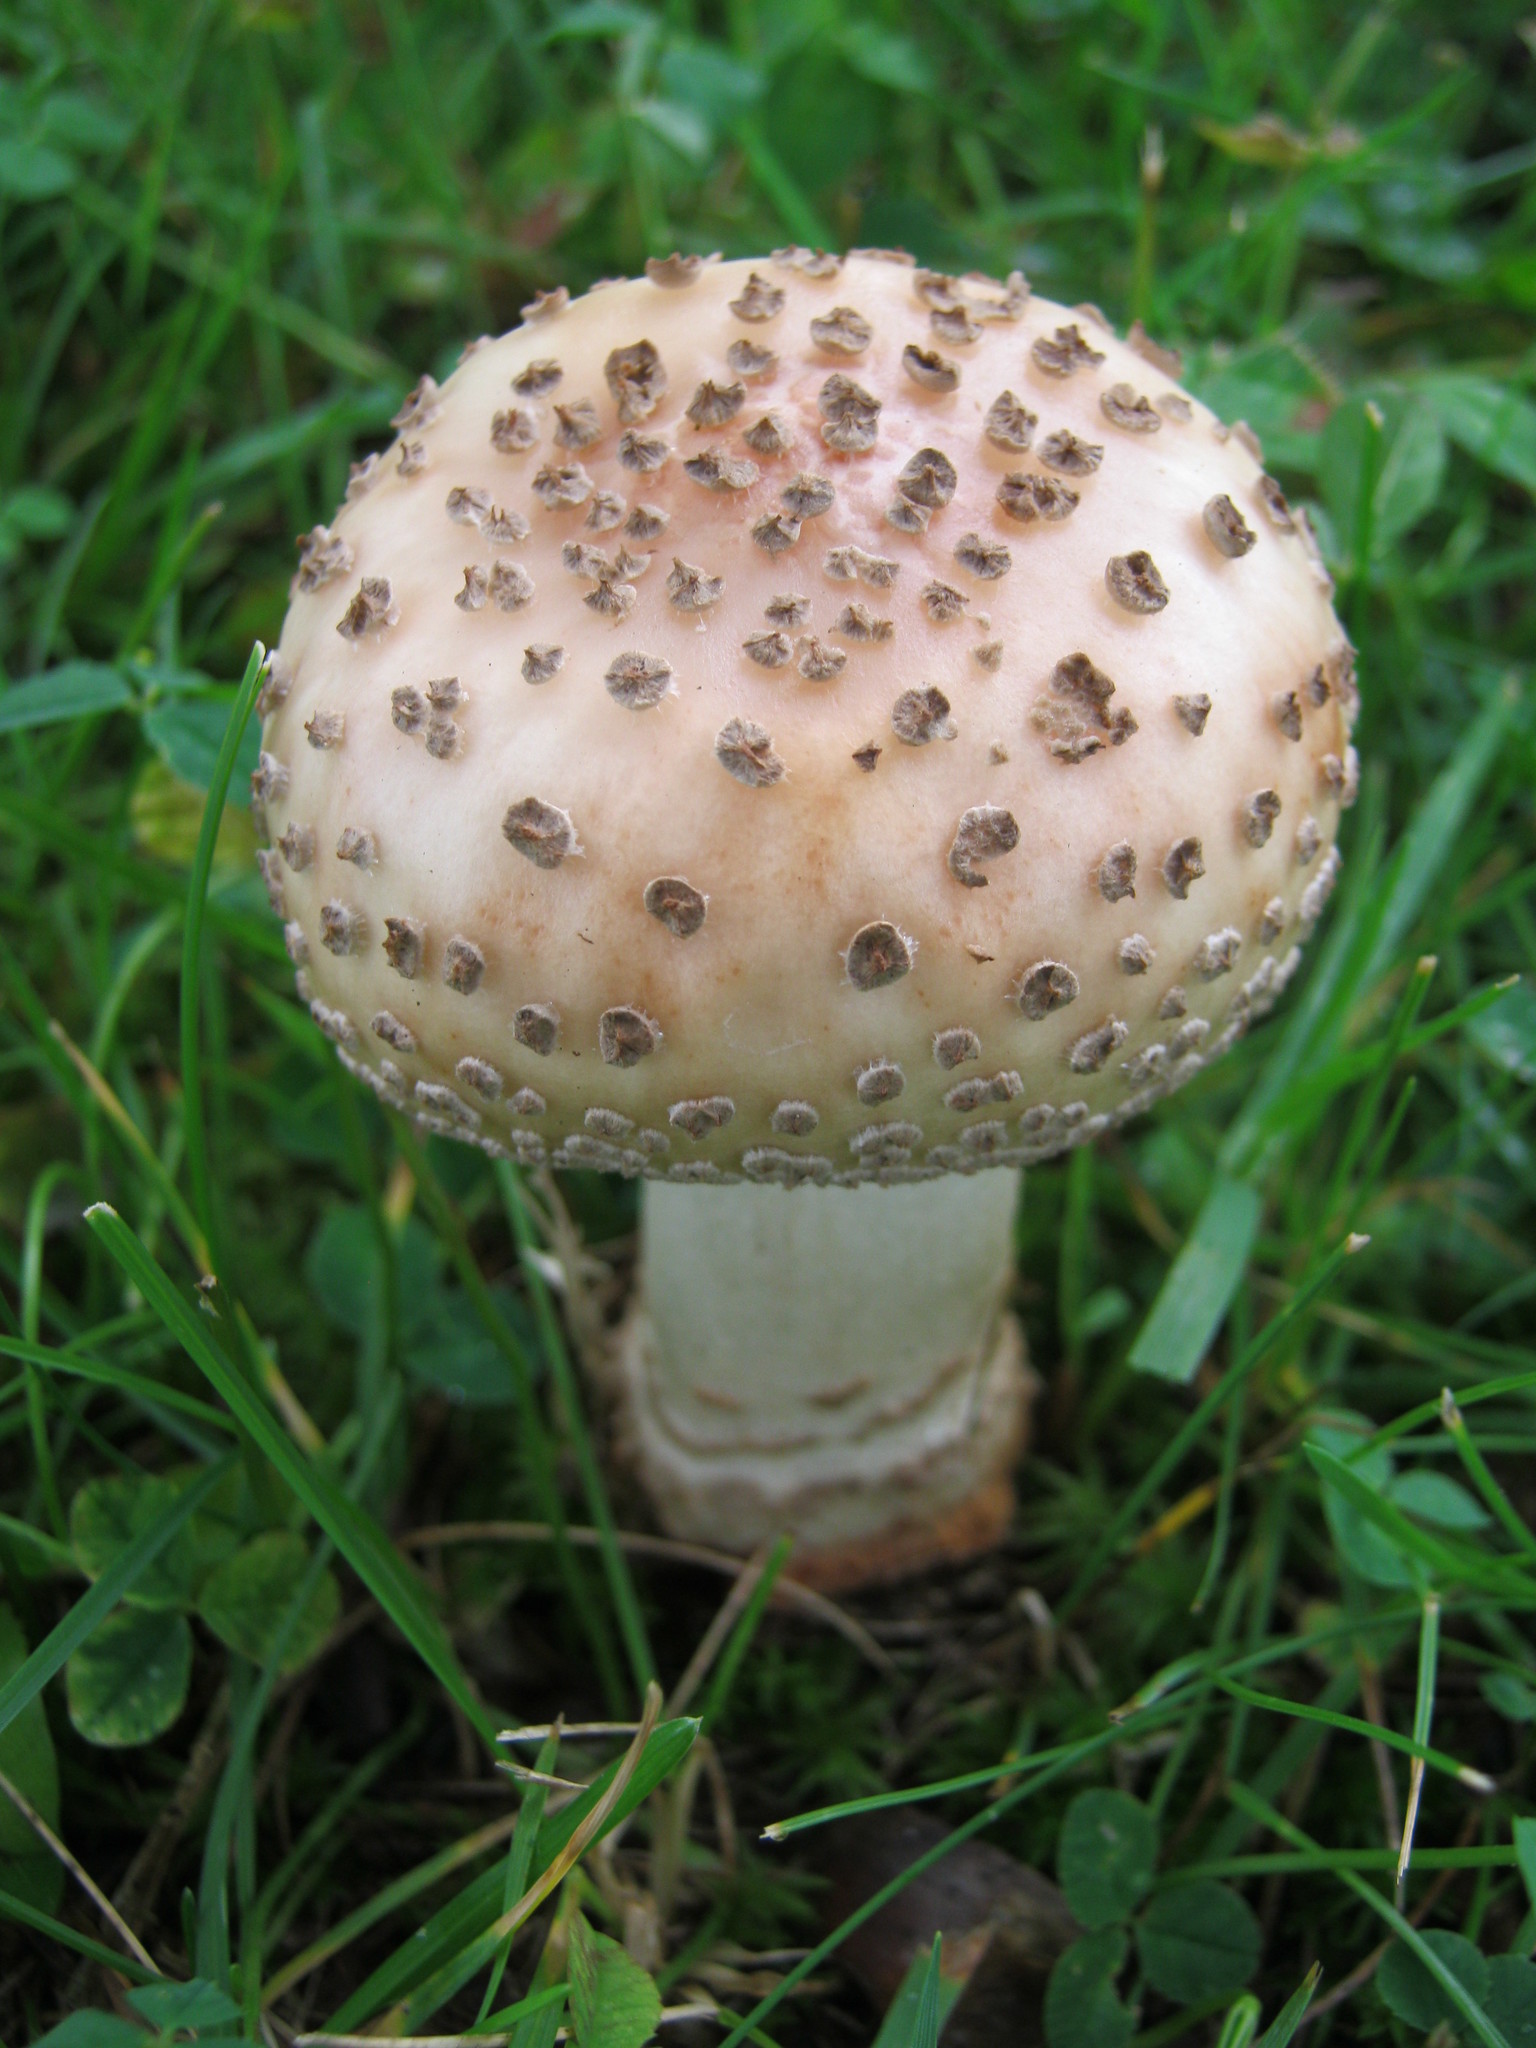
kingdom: Fungi
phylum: Basidiomycota
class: Agaricomycetes
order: Agaricales
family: Amanitaceae
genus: Amanita
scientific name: Amanita
